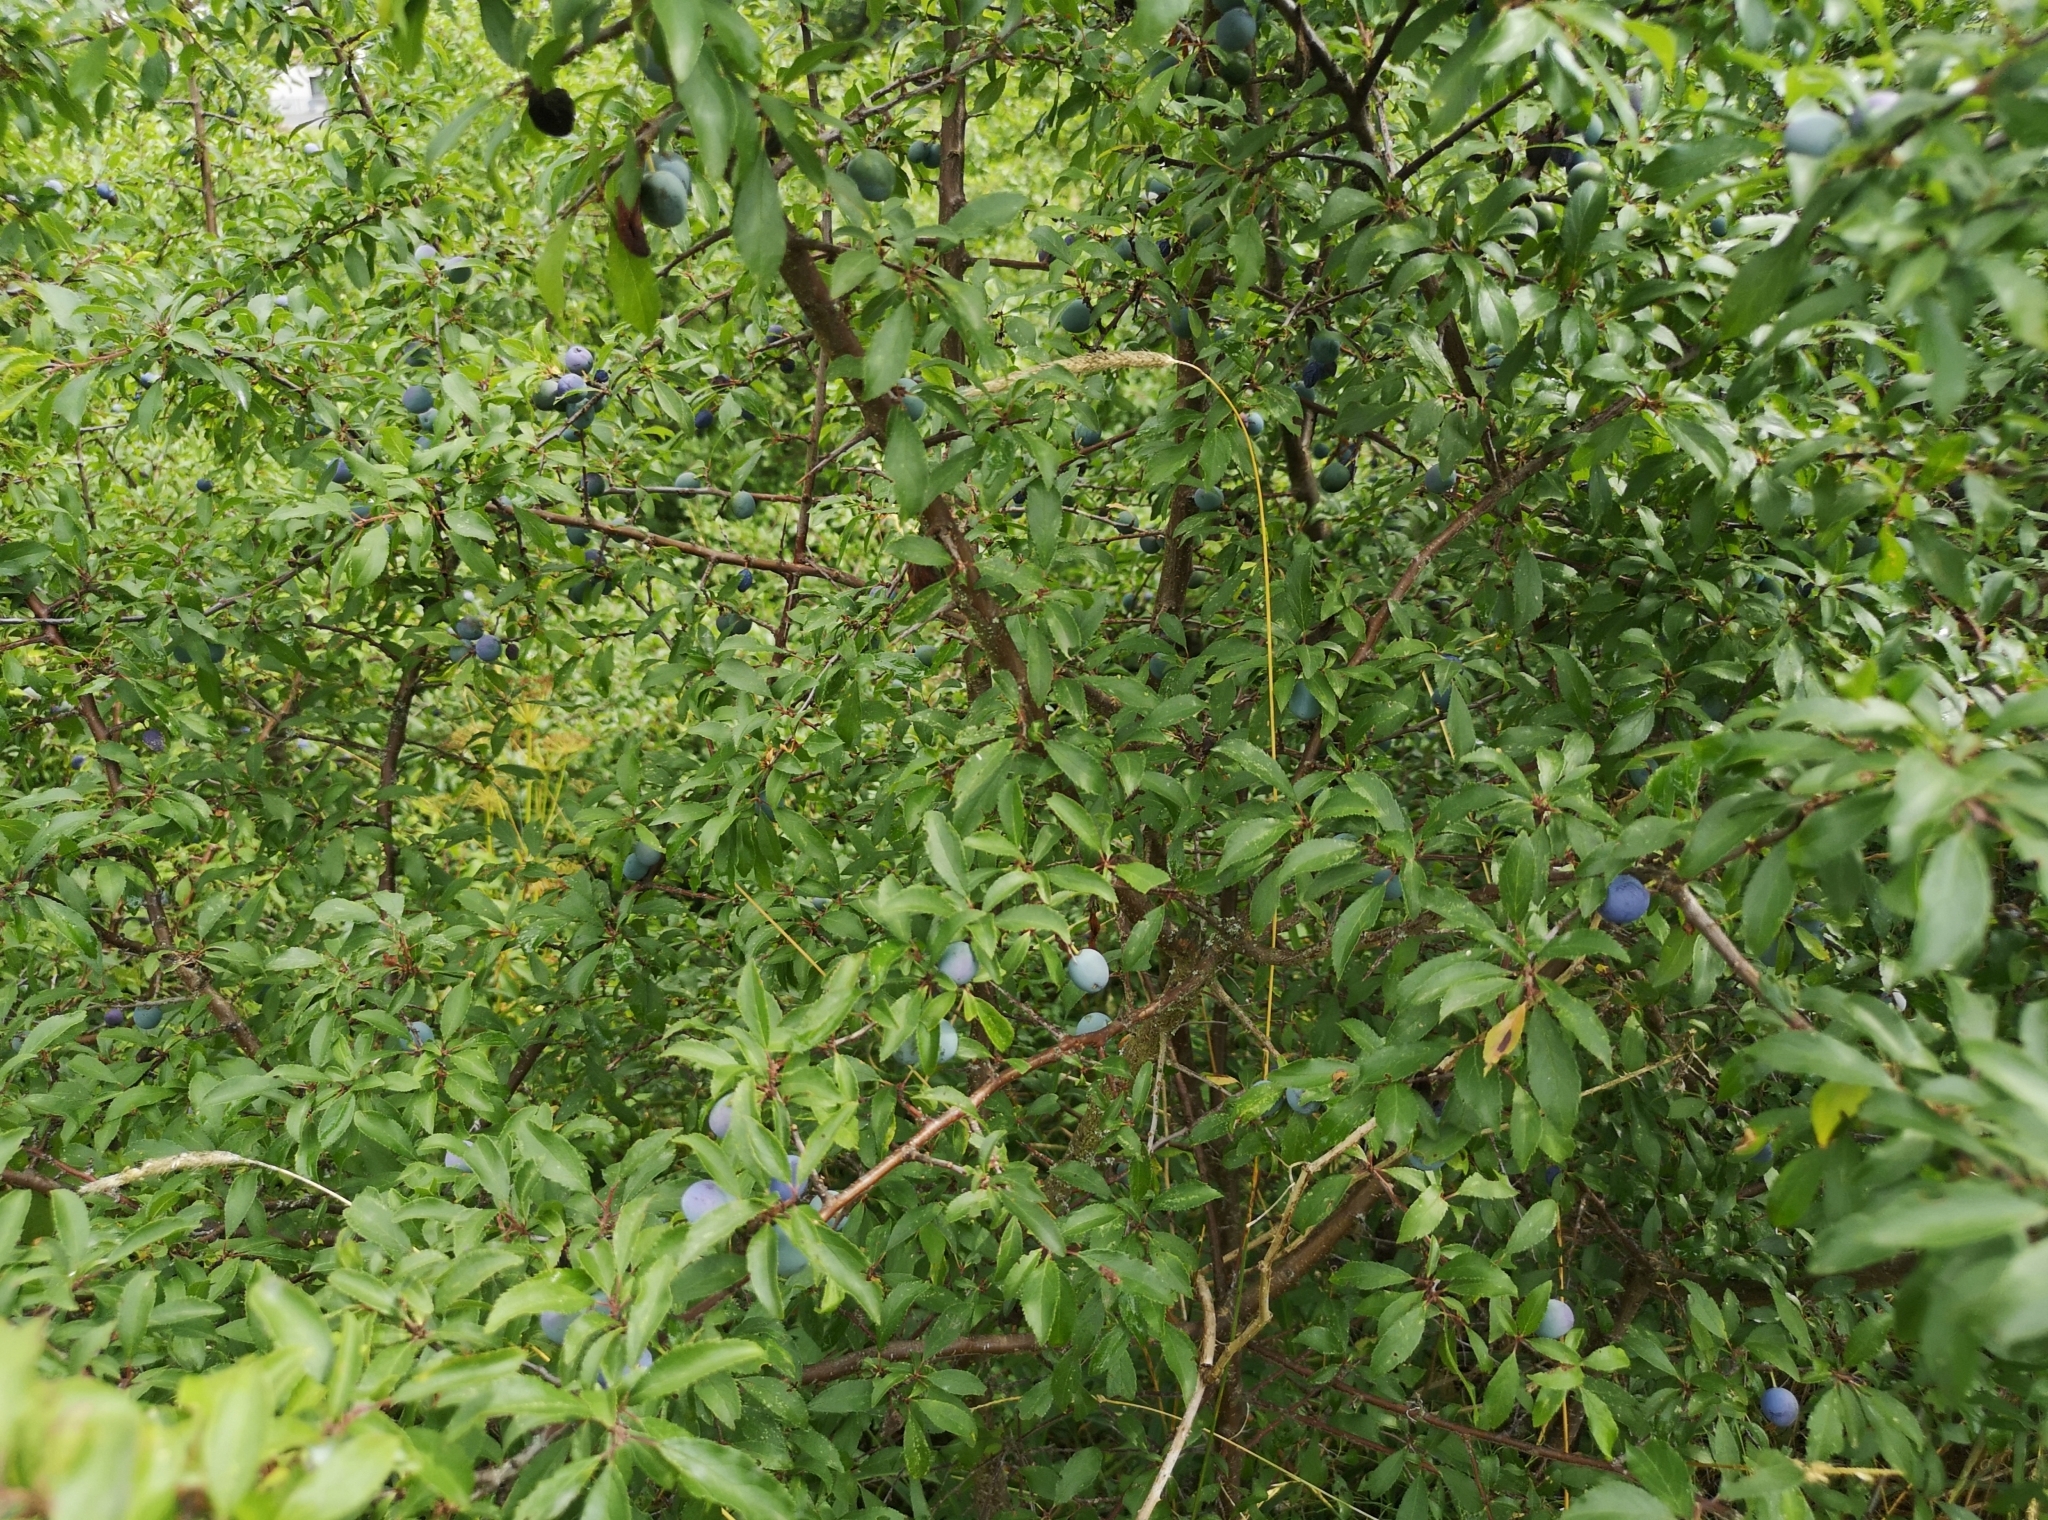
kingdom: Plantae
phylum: Tracheophyta
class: Magnoliopsida
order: Rosales
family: Rosaceae
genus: Prunus
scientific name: Prunus spinosa
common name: Blackthorn
